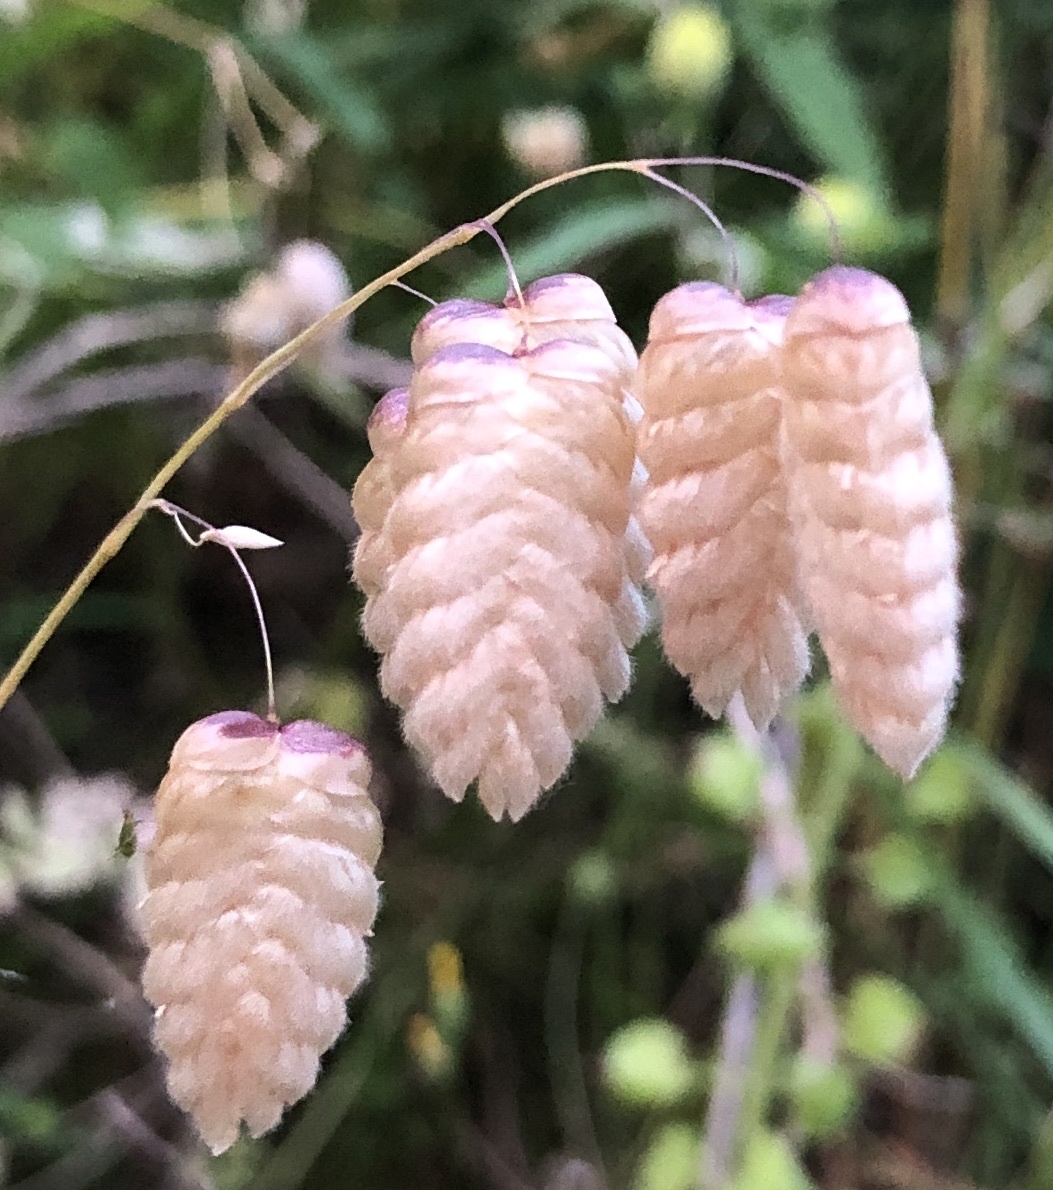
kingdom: Plantae
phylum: Tracheophyta
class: Liliopsida
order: Poales
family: Poaceae
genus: Briza
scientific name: Briza maxima
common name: Big quakinggrass
